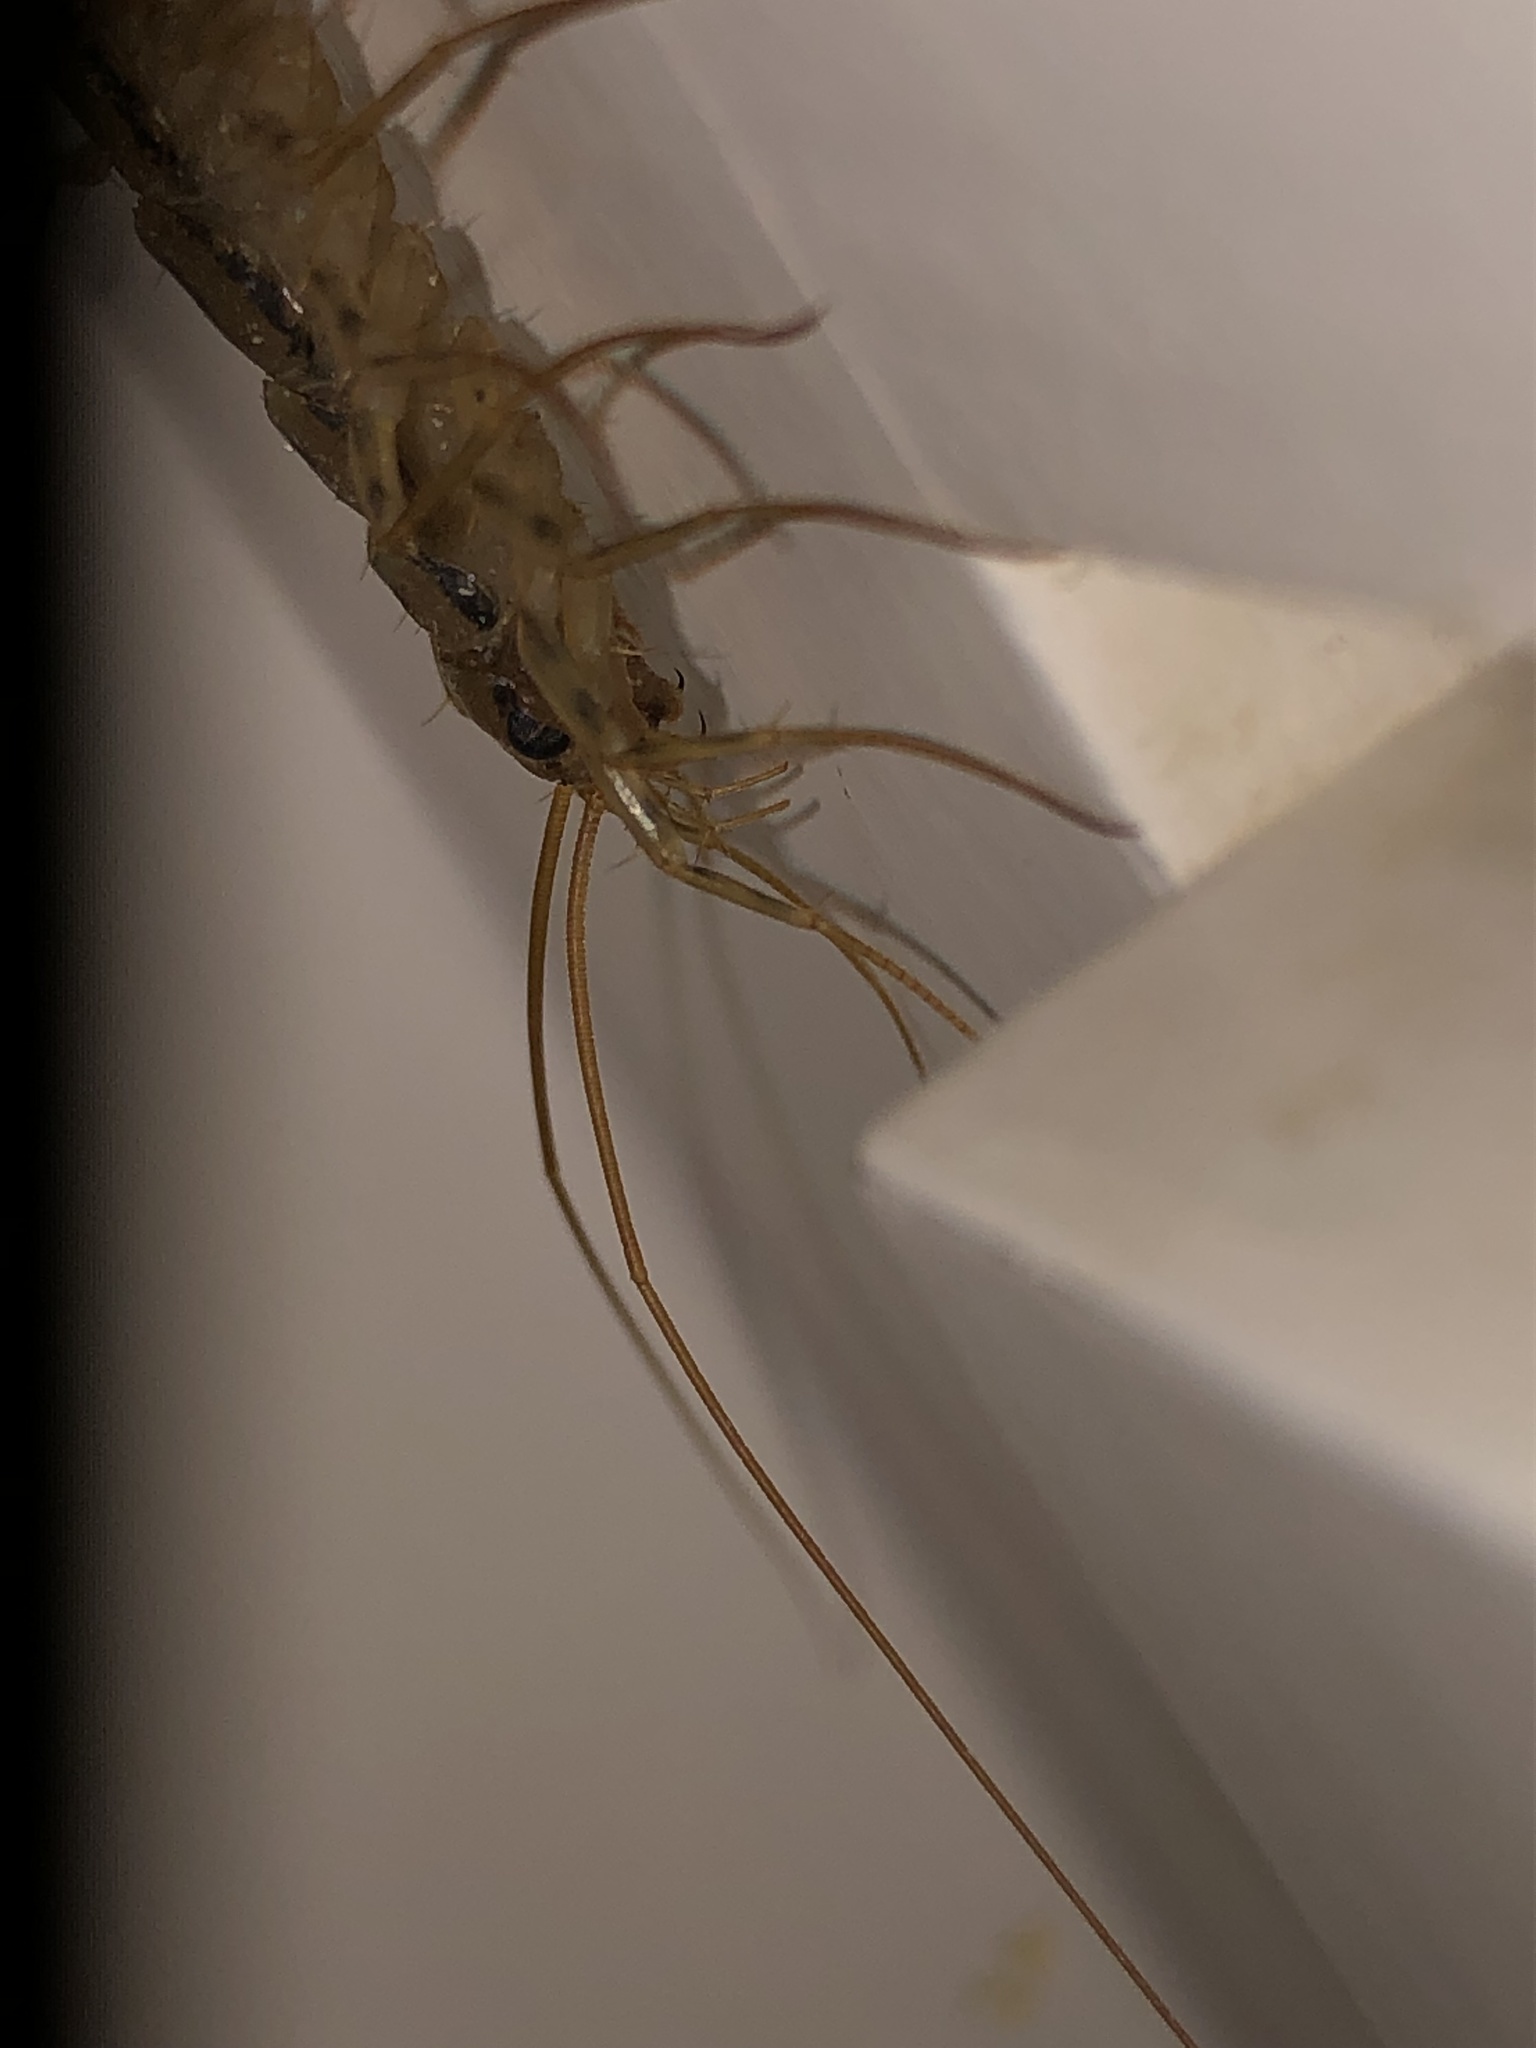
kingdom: Animalia
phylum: Arthropoda
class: Chilopoda
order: Scutigeromorpha
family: Scutigeridae
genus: Scutigera
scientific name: Scutigera coleoptrata
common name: House centipede
